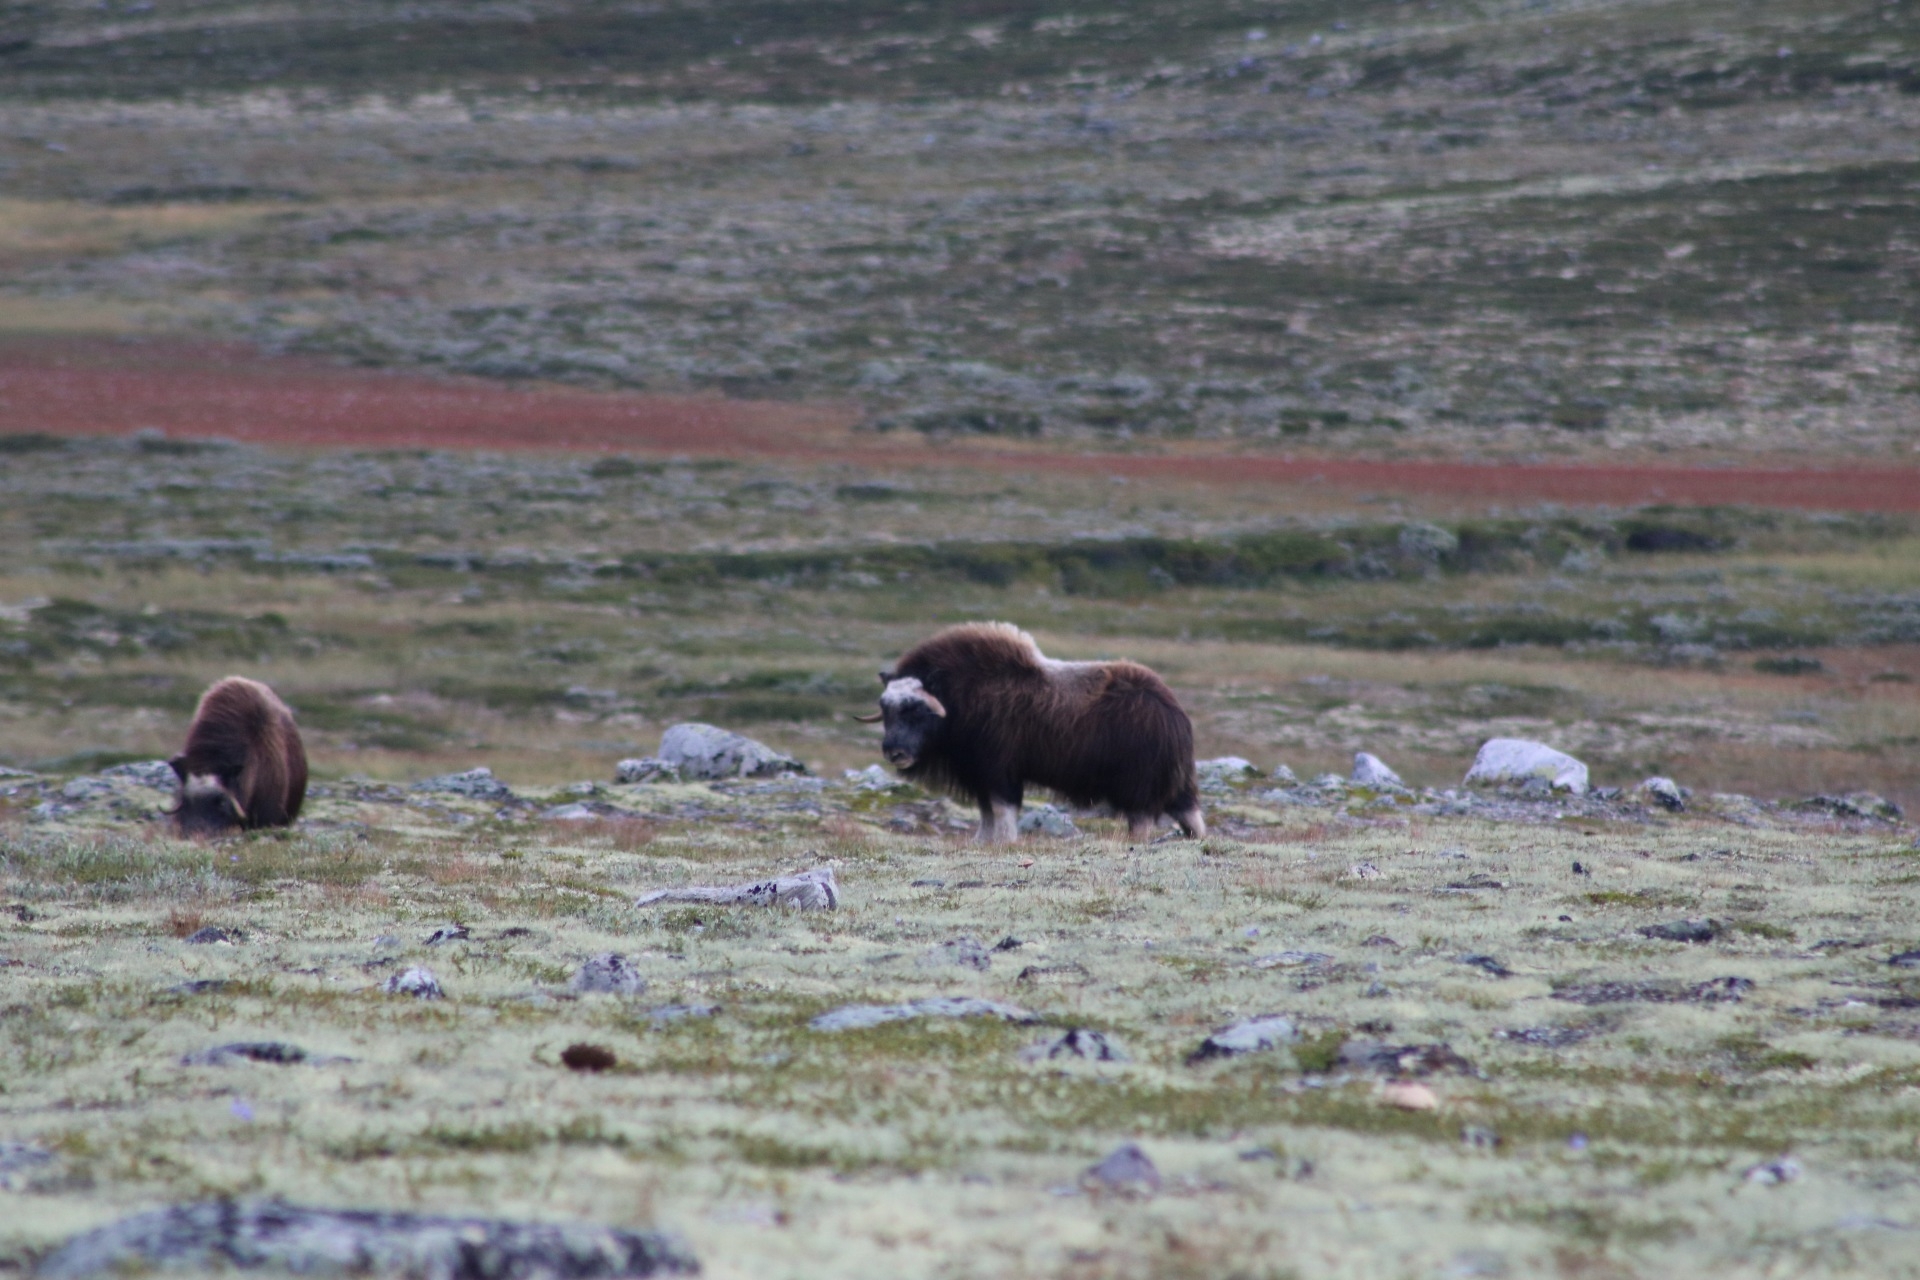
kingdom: Animalia
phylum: Chordata
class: Mammalia
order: Artiodactyla
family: Bovidae
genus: Ovibos
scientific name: Ovibos moschatus
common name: Muskox
